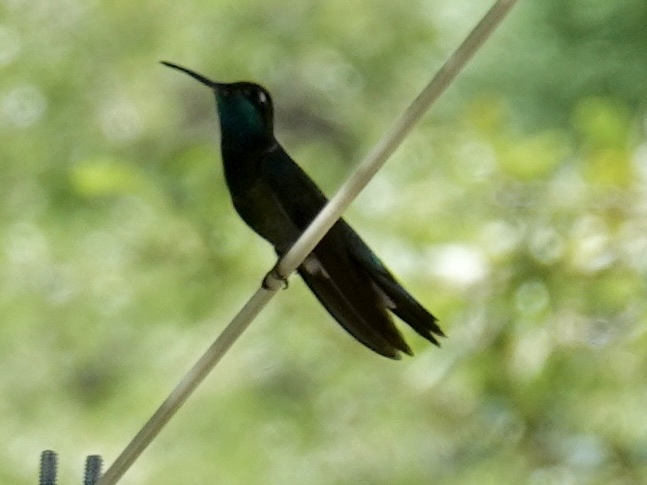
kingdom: Animalia
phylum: Chordata
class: Aves
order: Apodiformes
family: Trochilidae
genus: Eugenes
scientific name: Eugenes fulgens
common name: Magnificent hummingbird
